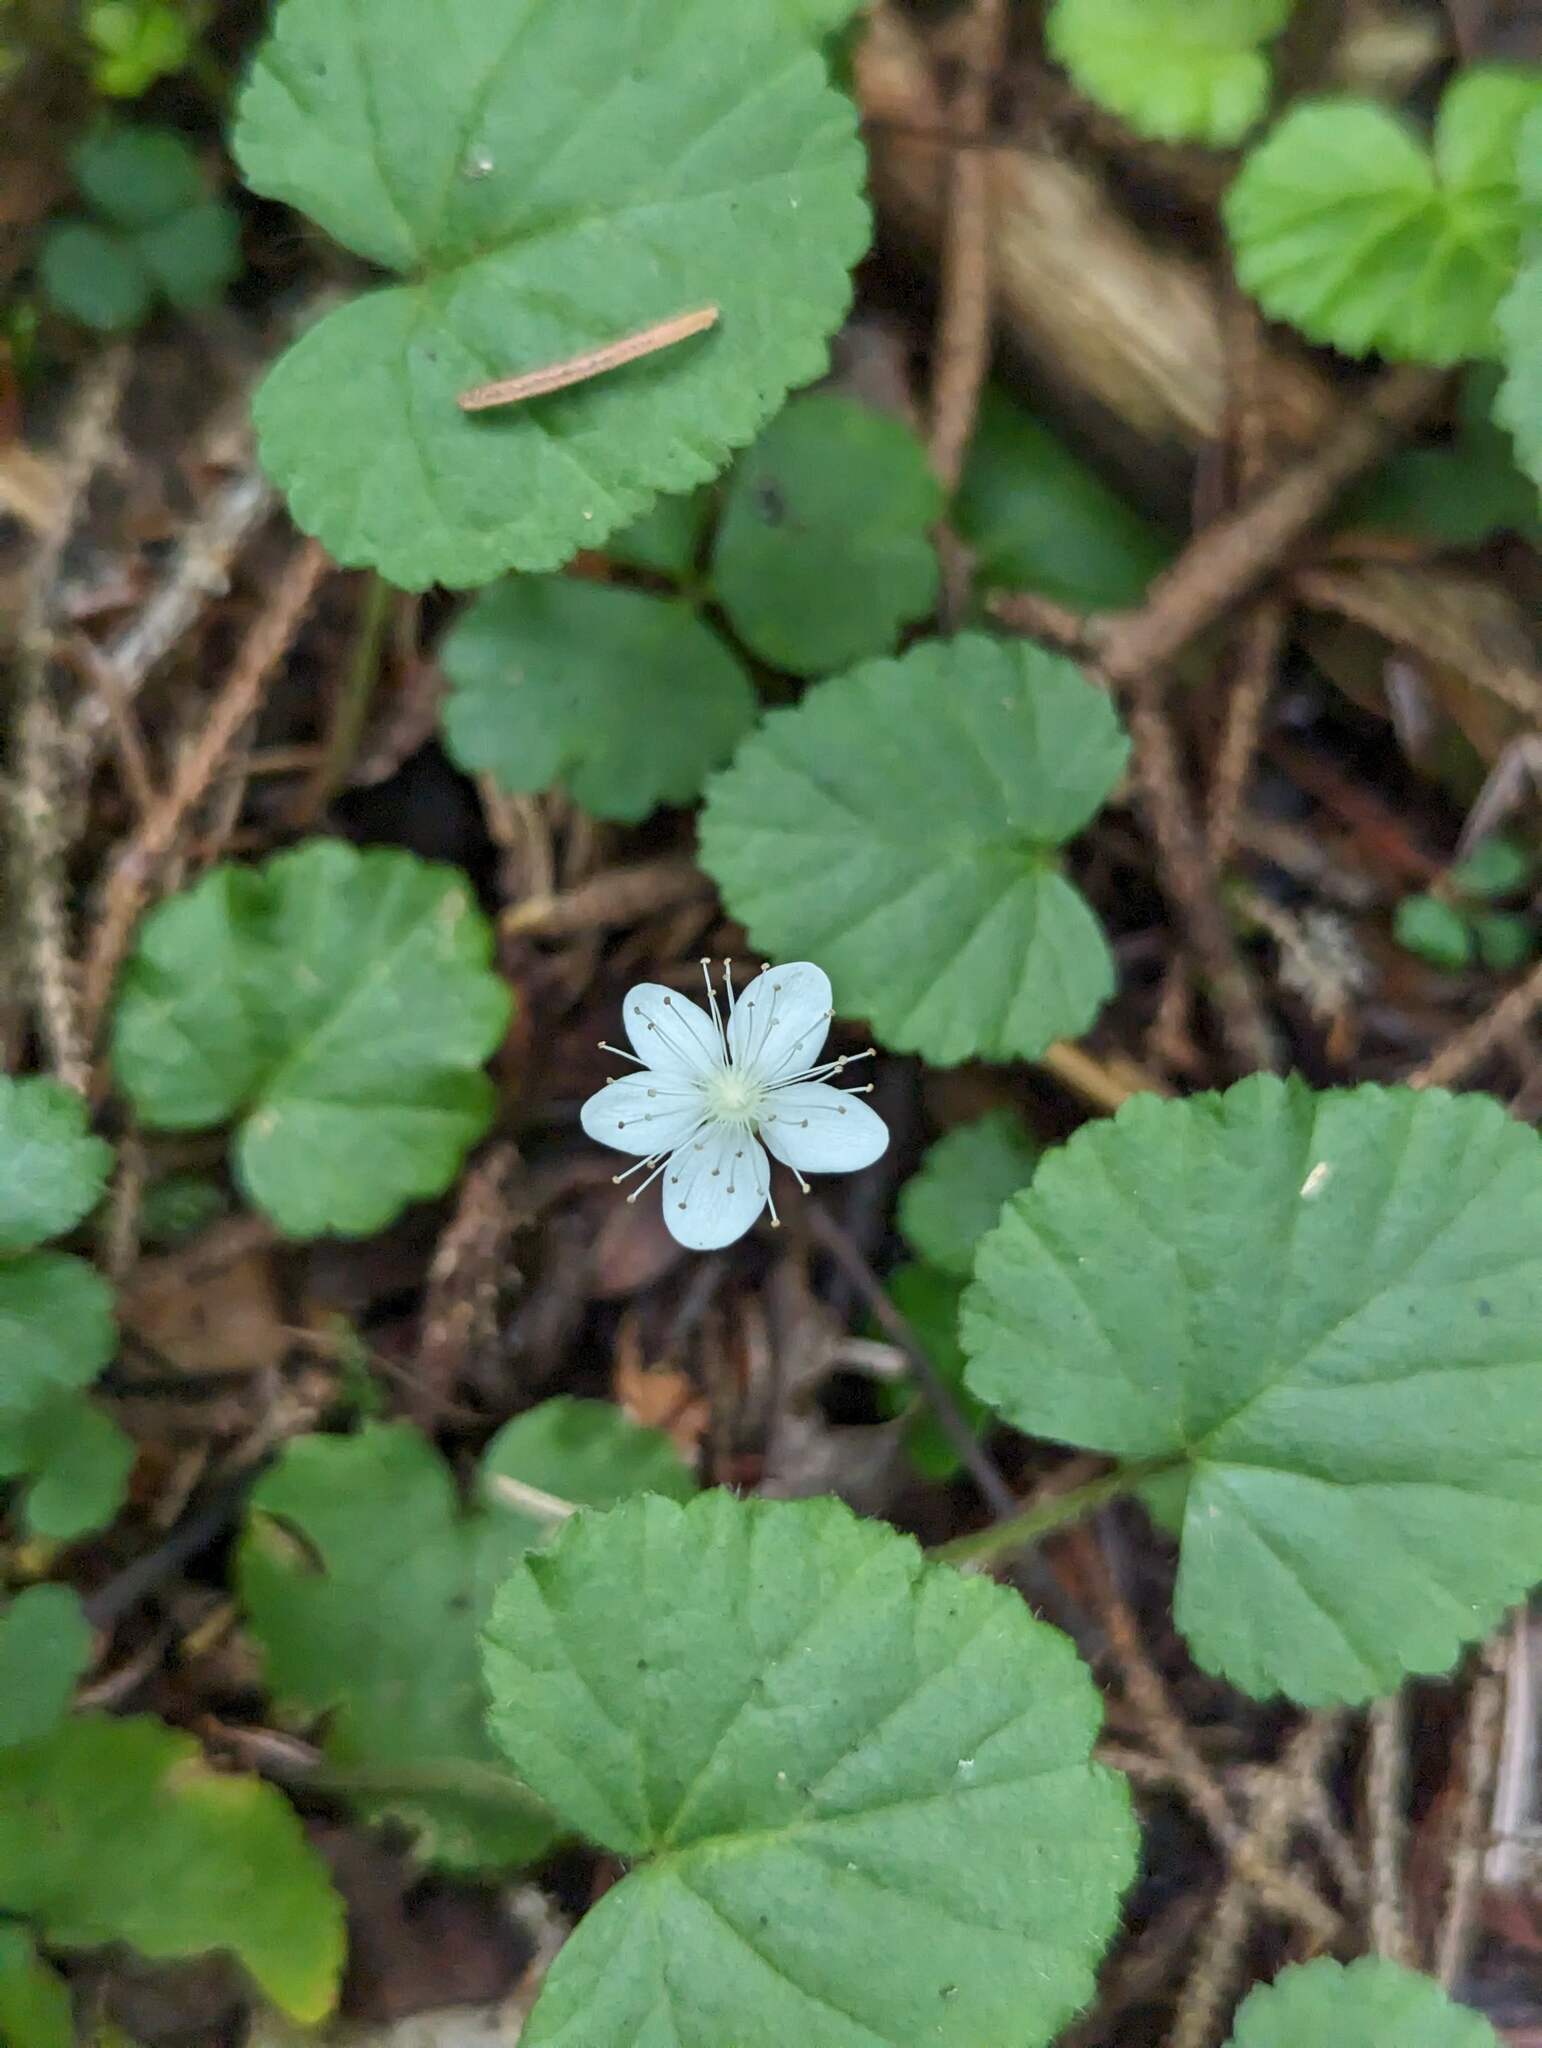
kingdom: Plantae
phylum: Tracheophyta
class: Magnoliopsida
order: Rosales
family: Rosaceae
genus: Dalibarda
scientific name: Dalibarda repens
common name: Dewdrop
